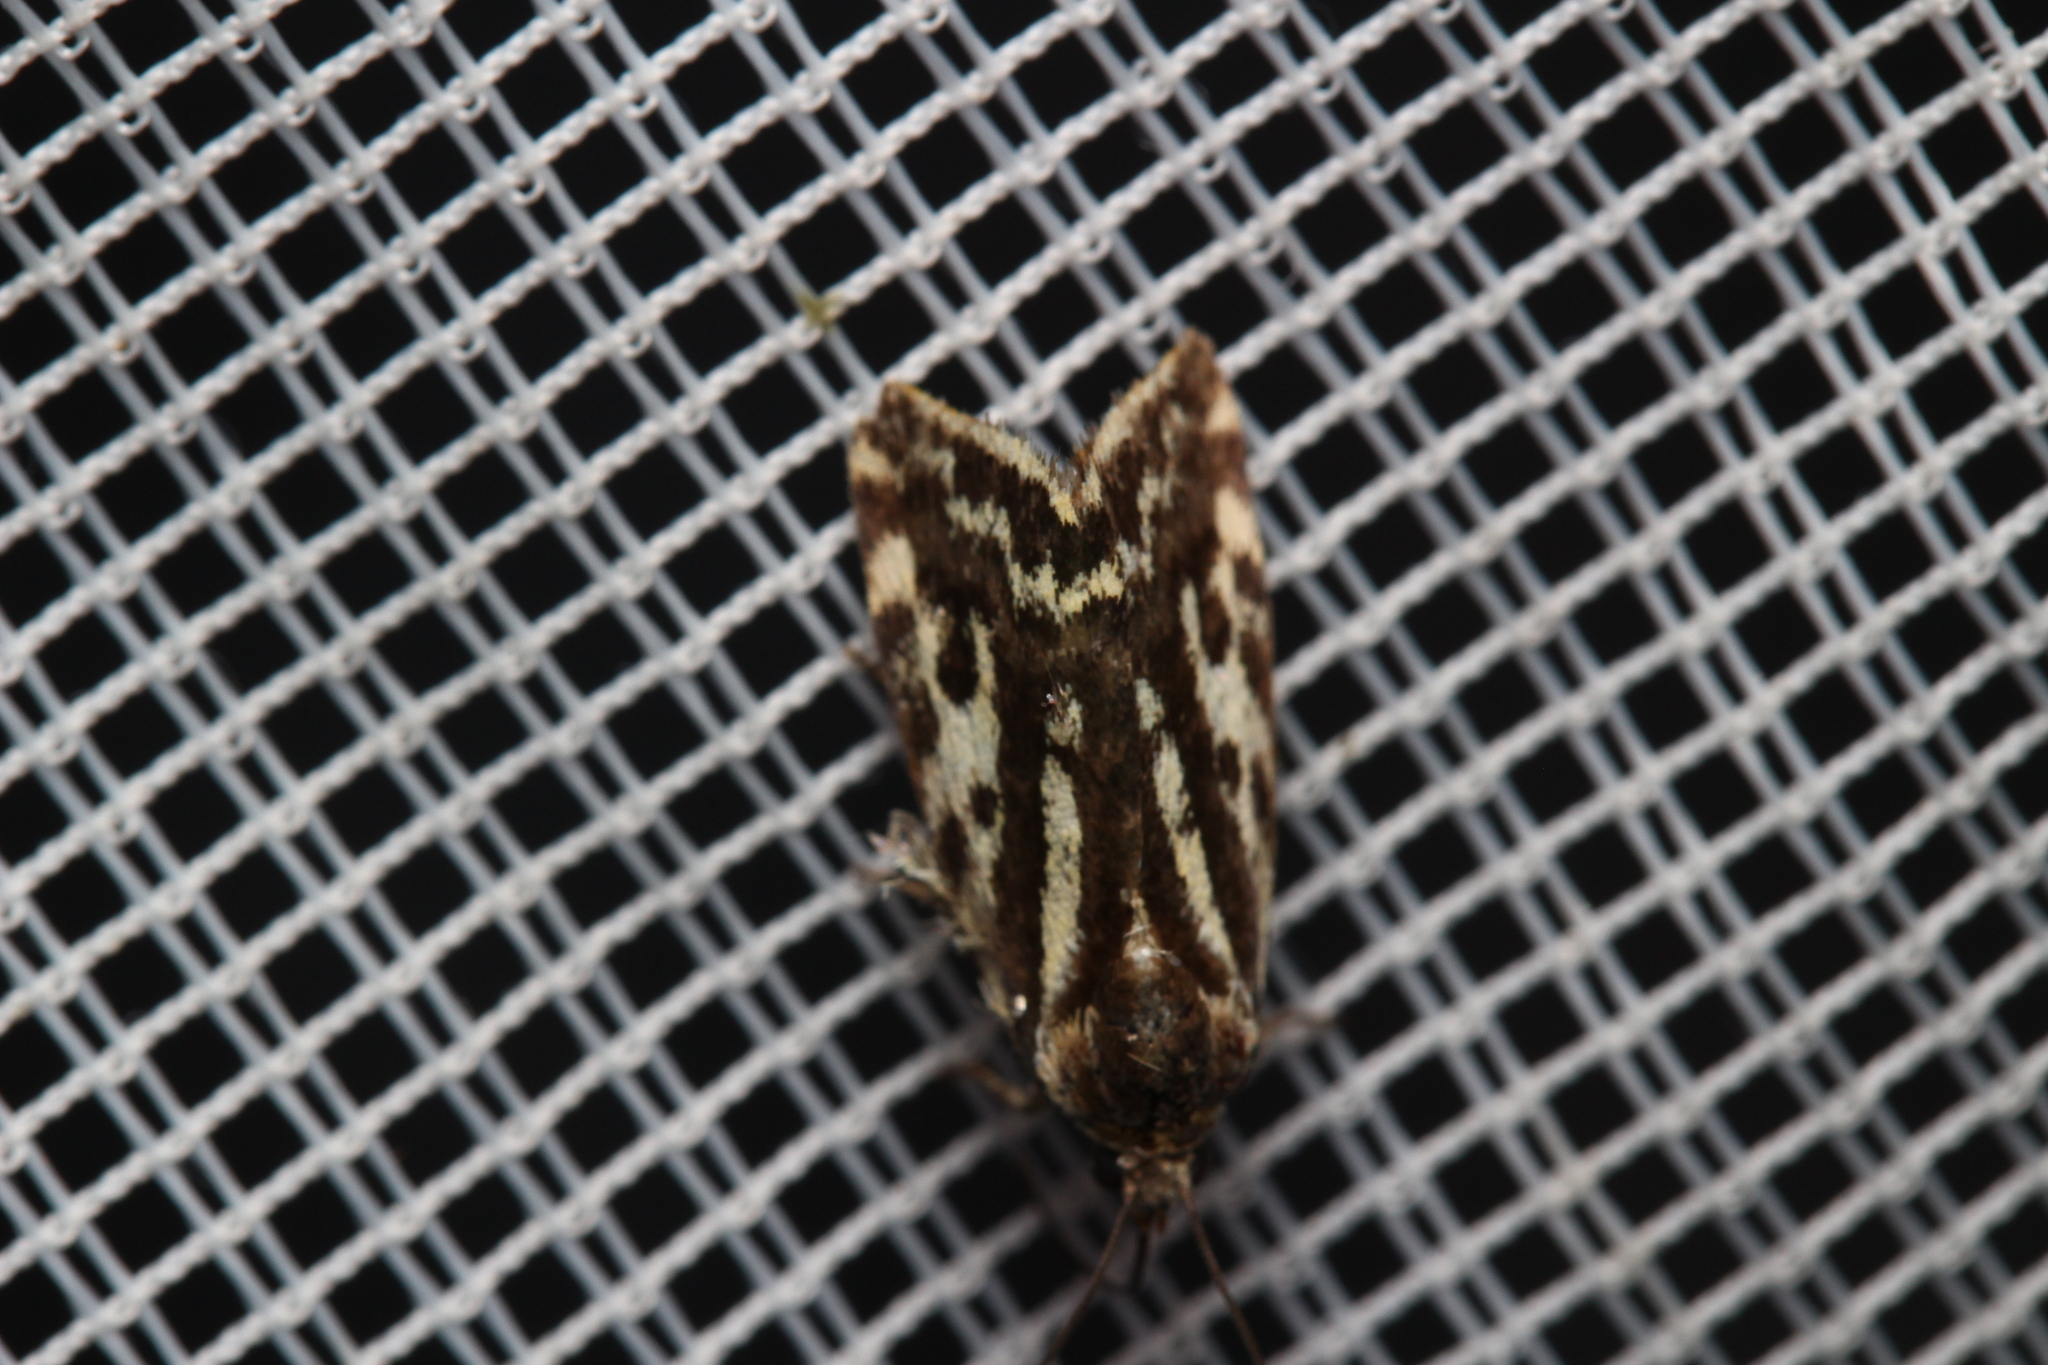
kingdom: Animalia
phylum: Arthropoda
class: Insecta
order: Lepidoptera
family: Noctuidae
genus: Acontia
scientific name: Acontia trabealis
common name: Spotted sulphur
